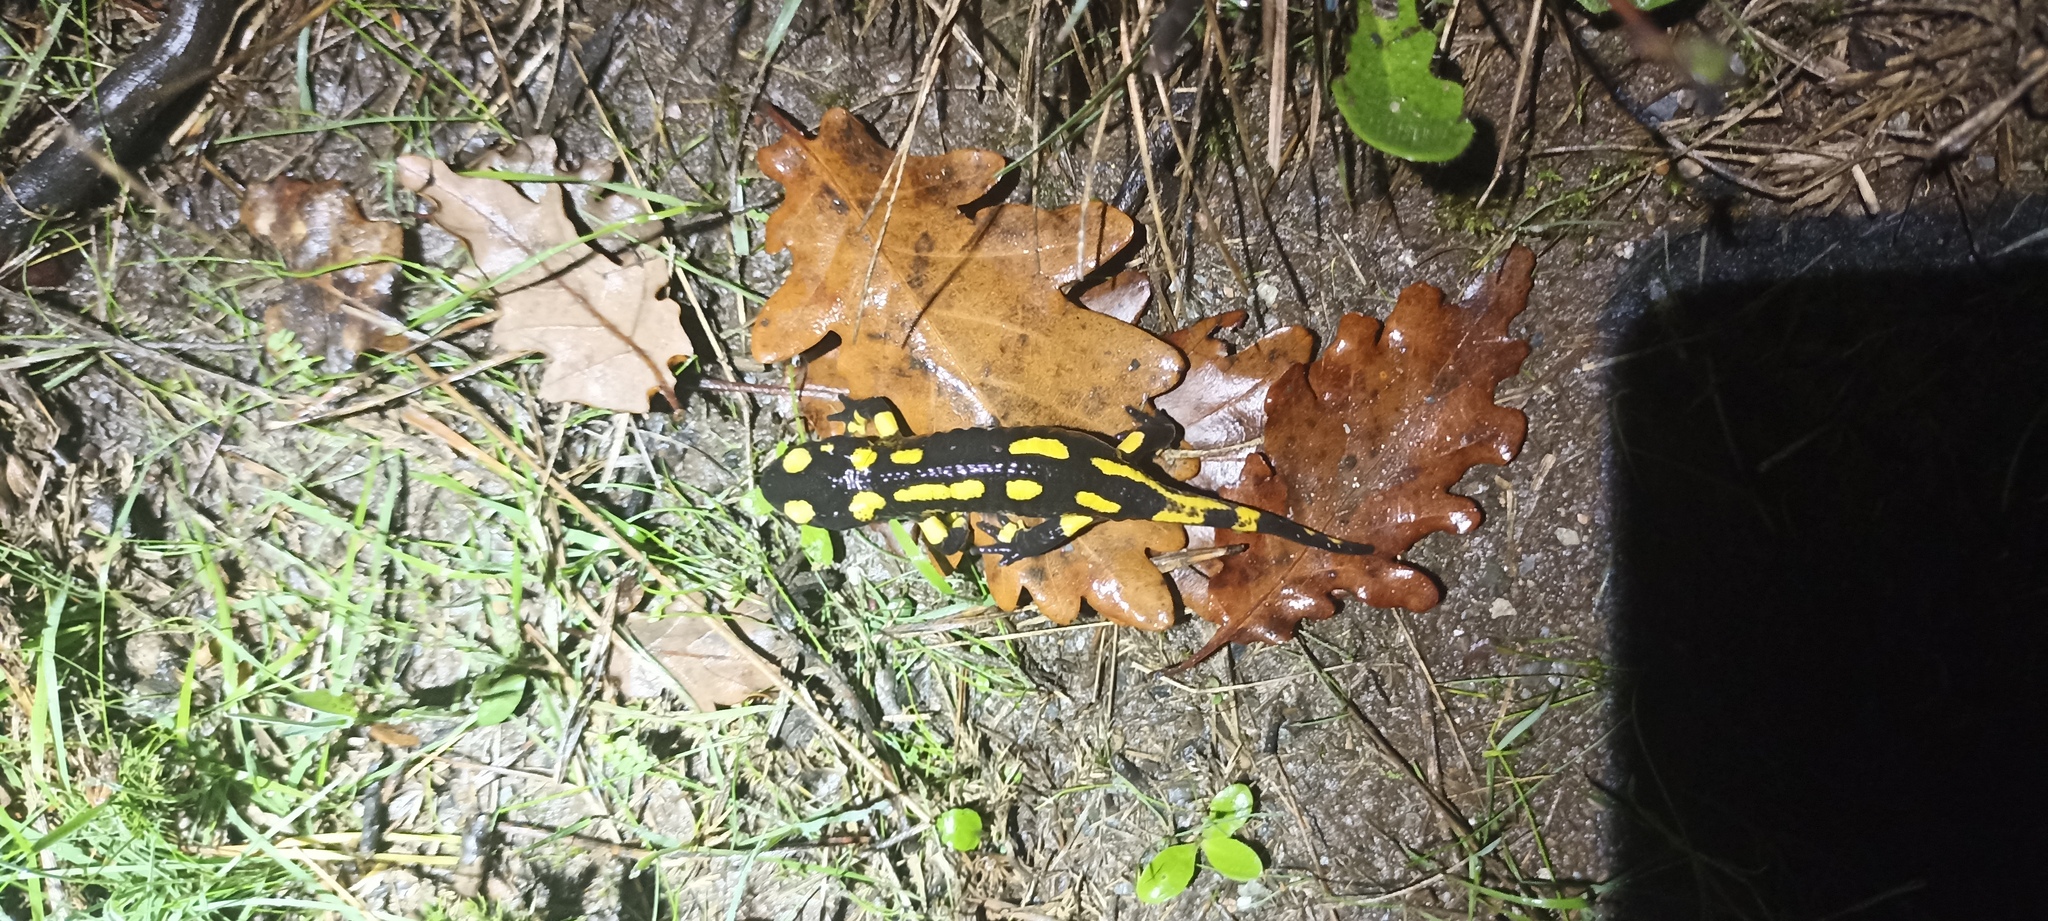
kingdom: Animalia
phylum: Chordata
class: Amphibia
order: Caudata
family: Salamandridae
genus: Salamandra
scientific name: Salamandra salamandra
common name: Fire salamander
